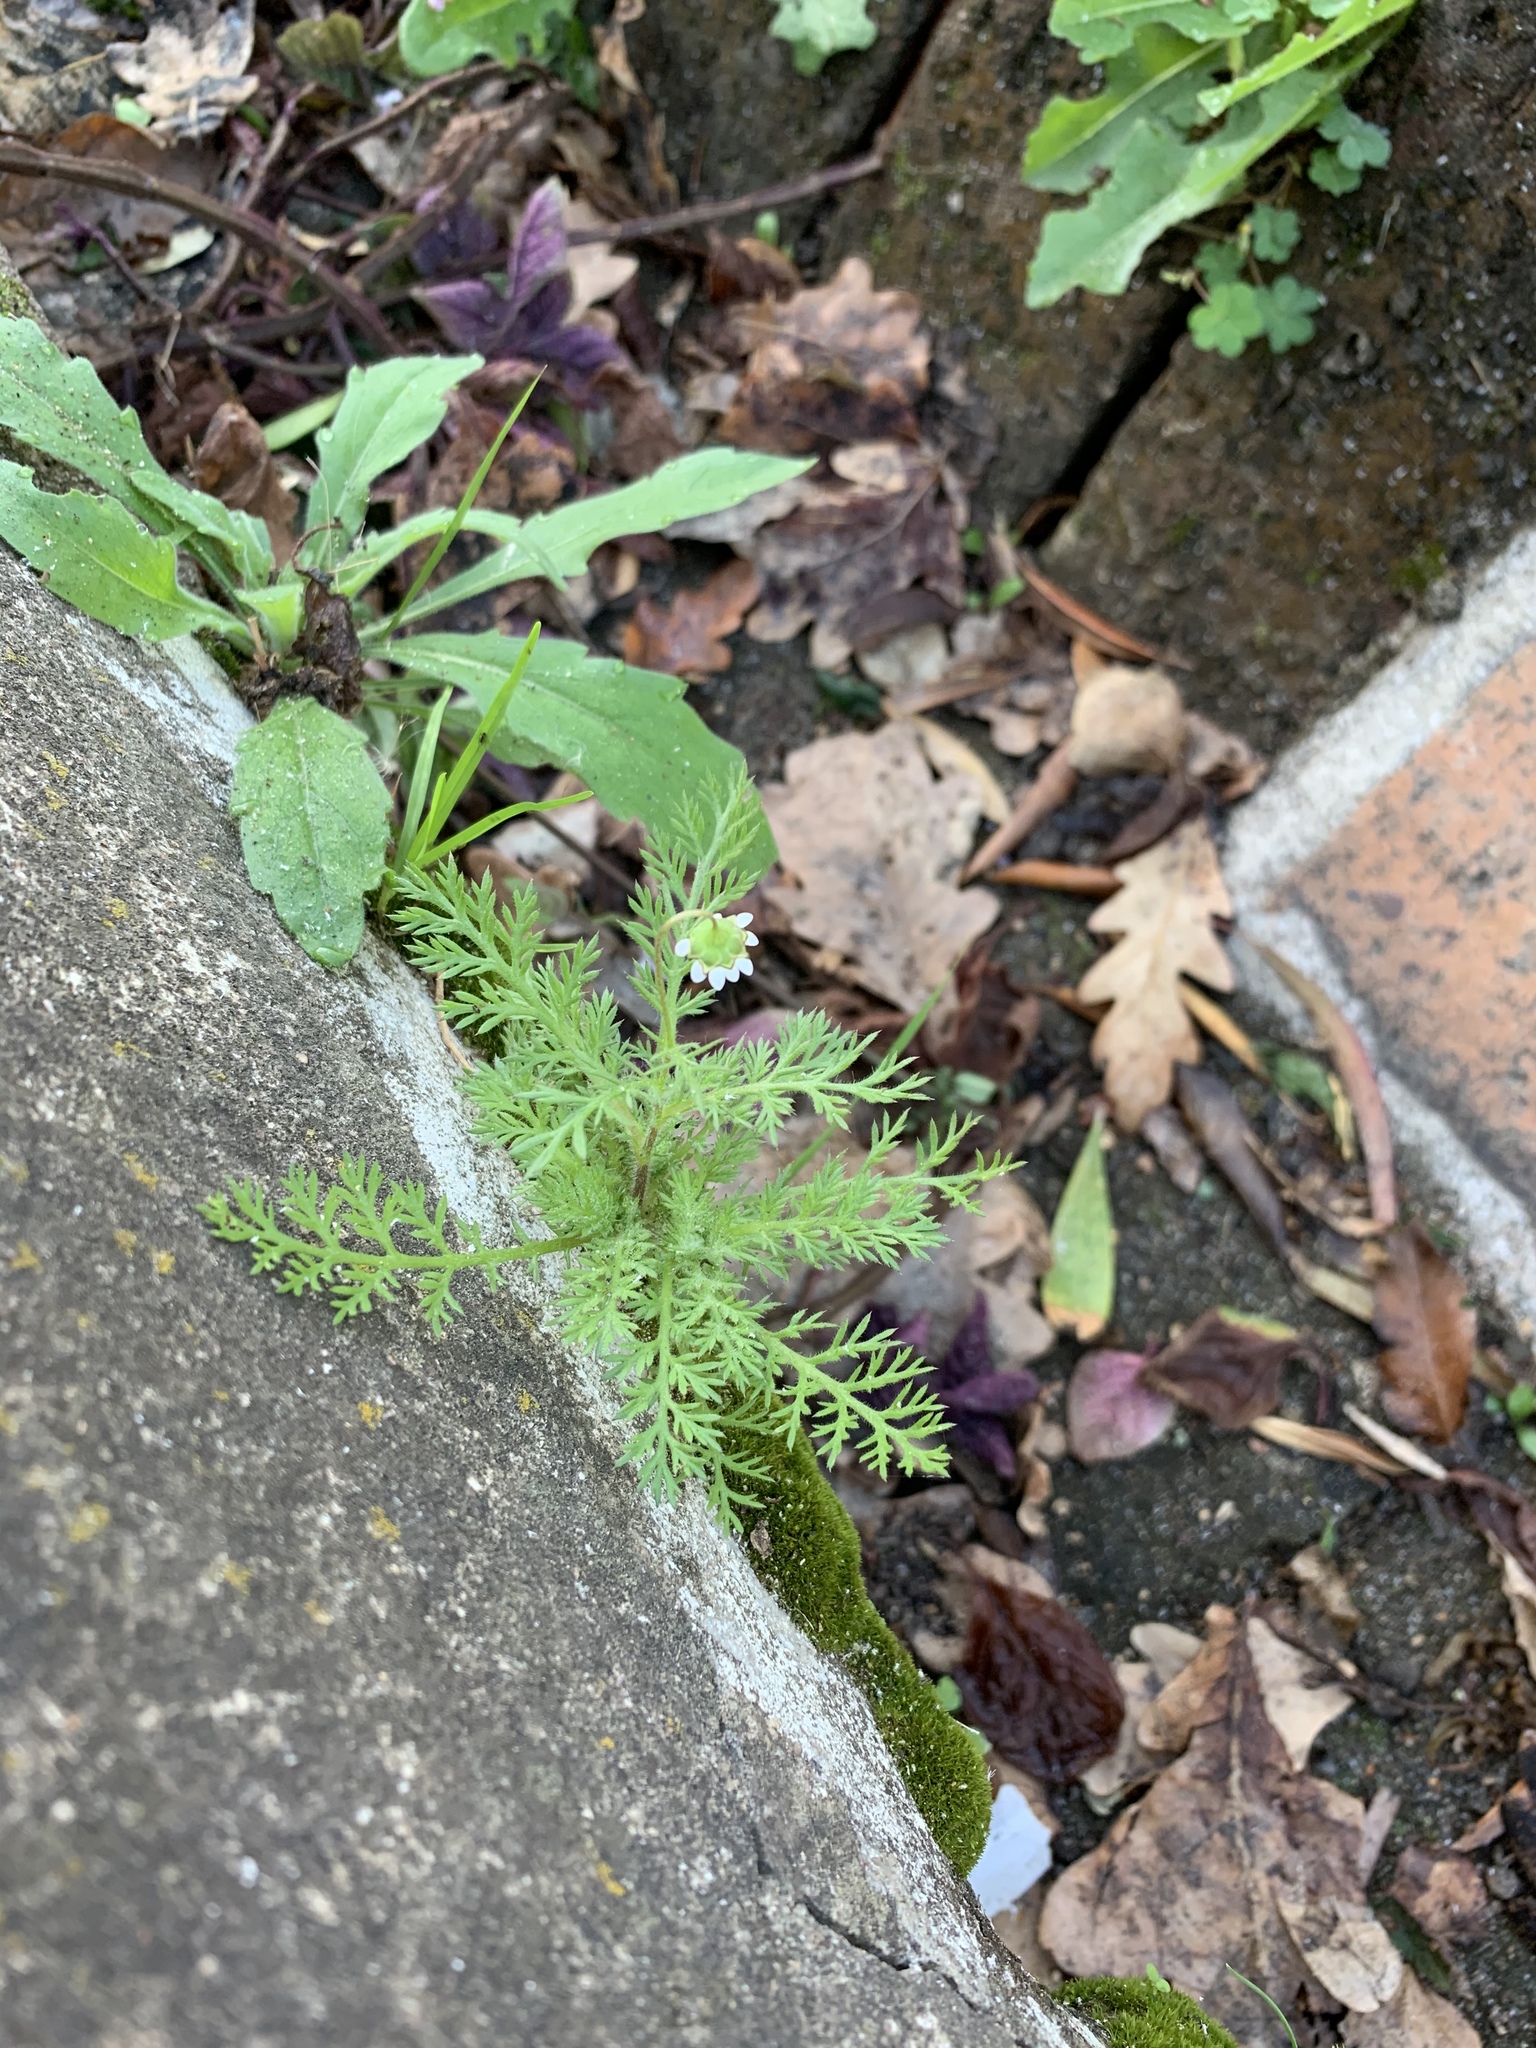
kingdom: Plantae
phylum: Tracheophyta
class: Magnoliopsida
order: Asterales
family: Asteraceae
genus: Cotula
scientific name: Cotula turbinata
